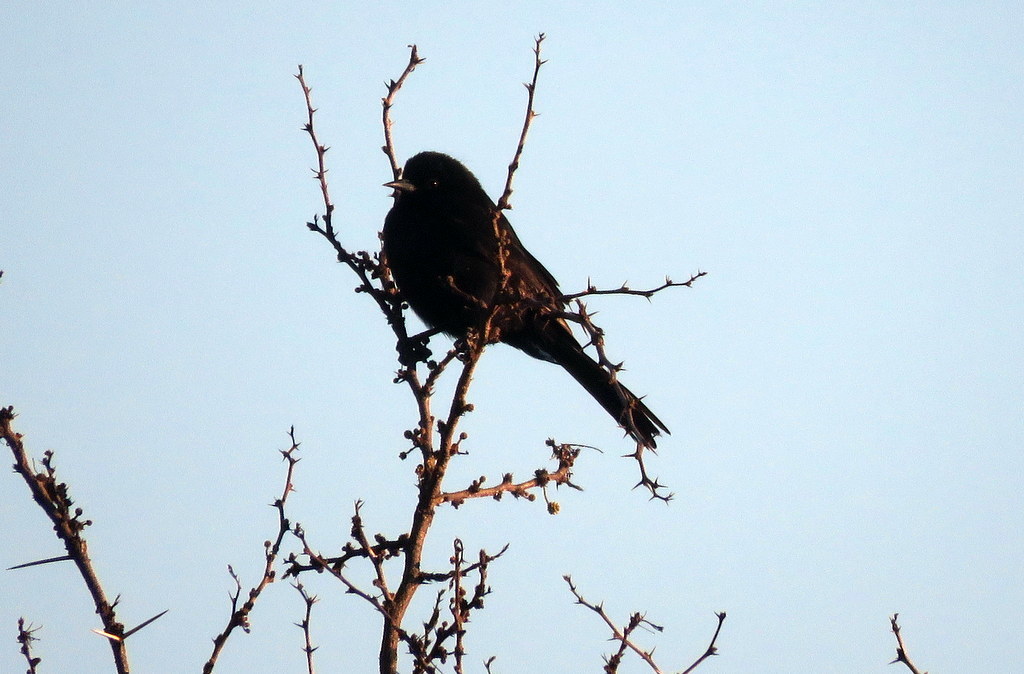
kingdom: Animalia
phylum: Chordata
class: Aves
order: Passeriformes
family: Icteridae
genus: Icterus
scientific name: Icterus cayanensis
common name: Epaulet oriole
